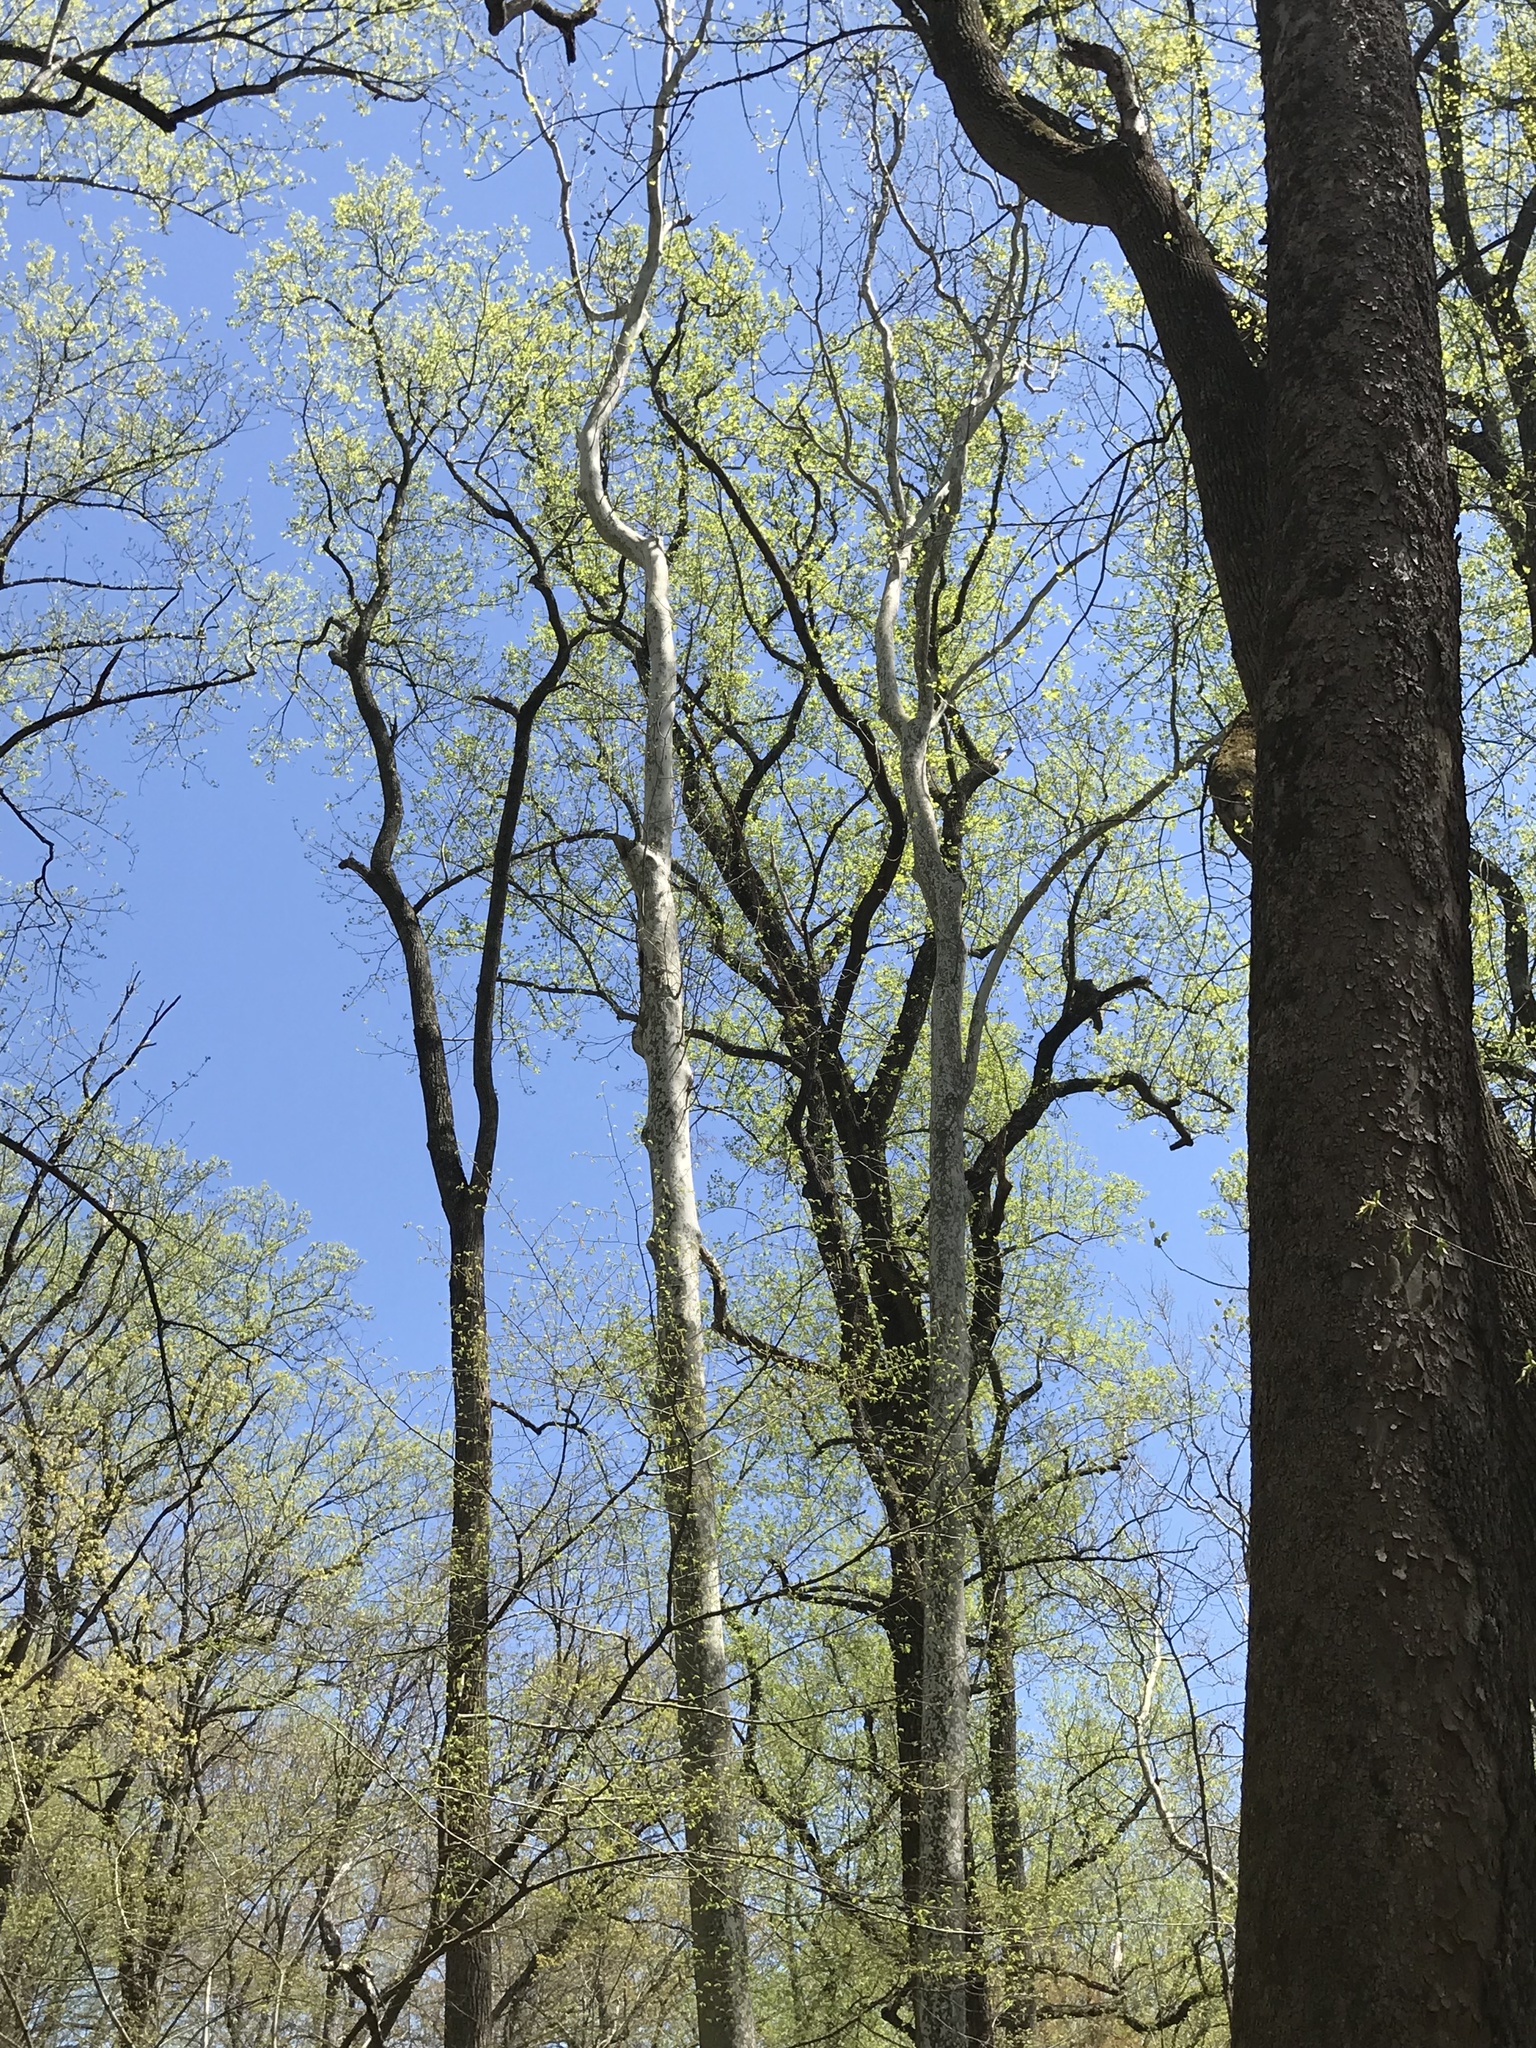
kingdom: Plantae
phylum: Tracheophyta
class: Magnoliopsida
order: Proteales
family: Platanaceae
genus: Platanus
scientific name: Platanus occidentalis
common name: American sycamore
